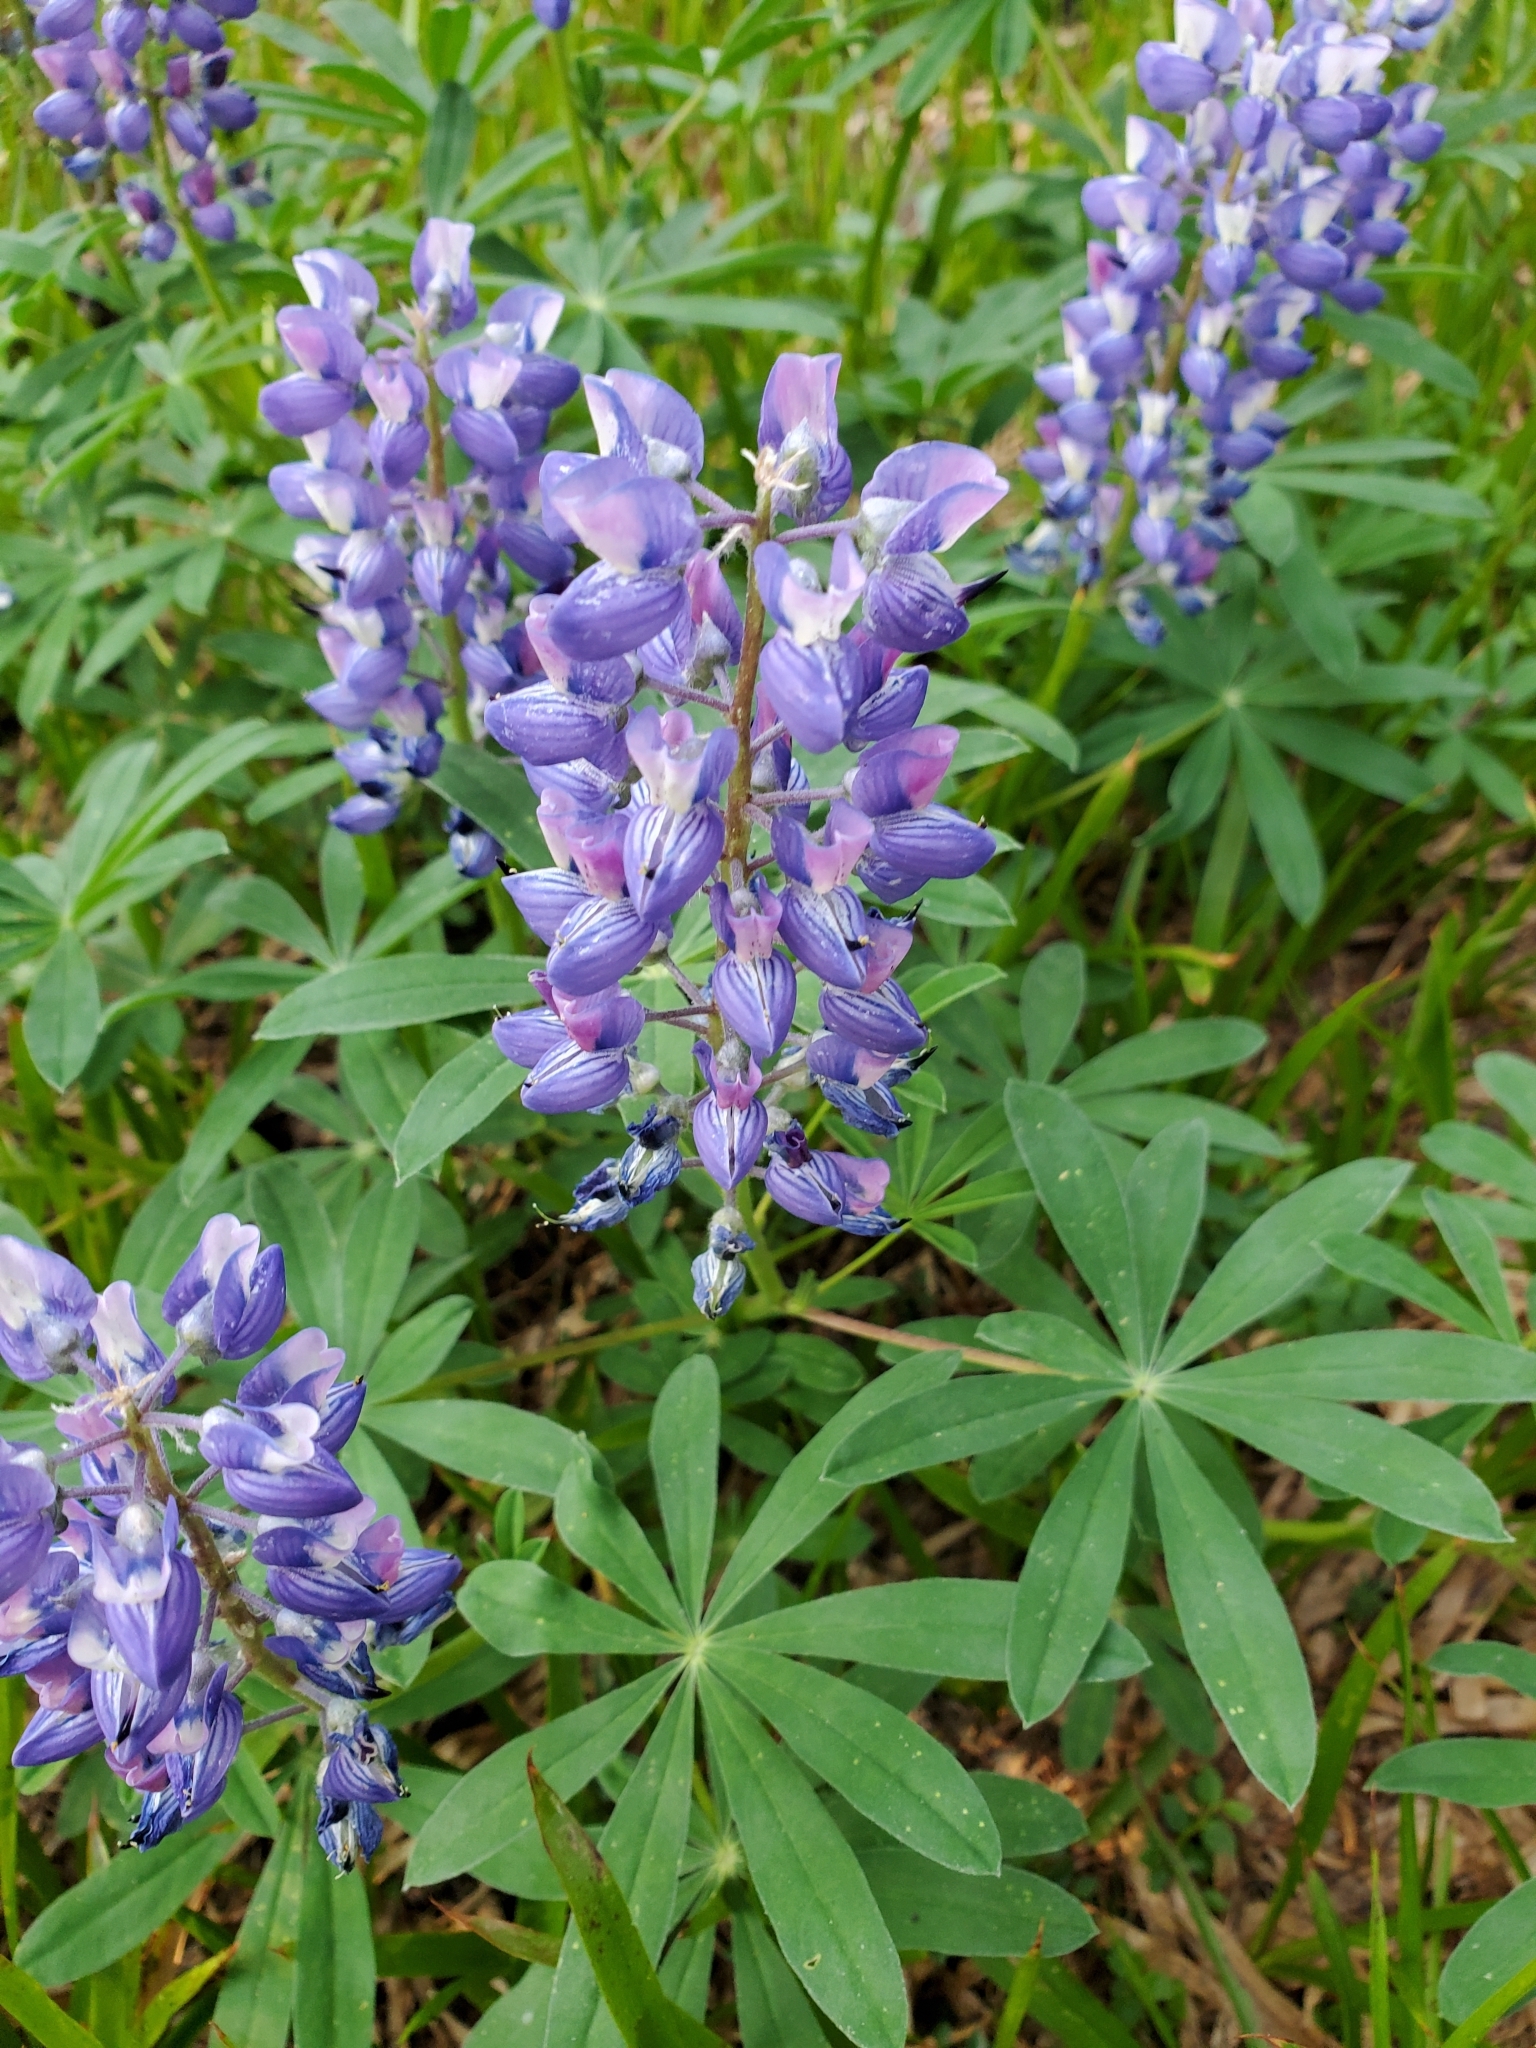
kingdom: Plantae
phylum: Tracheophyta
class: Magnoliopsida
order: Fabales
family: Fabaceae
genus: Lupinus
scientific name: Lupinus arcticus
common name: Arctic lupine
